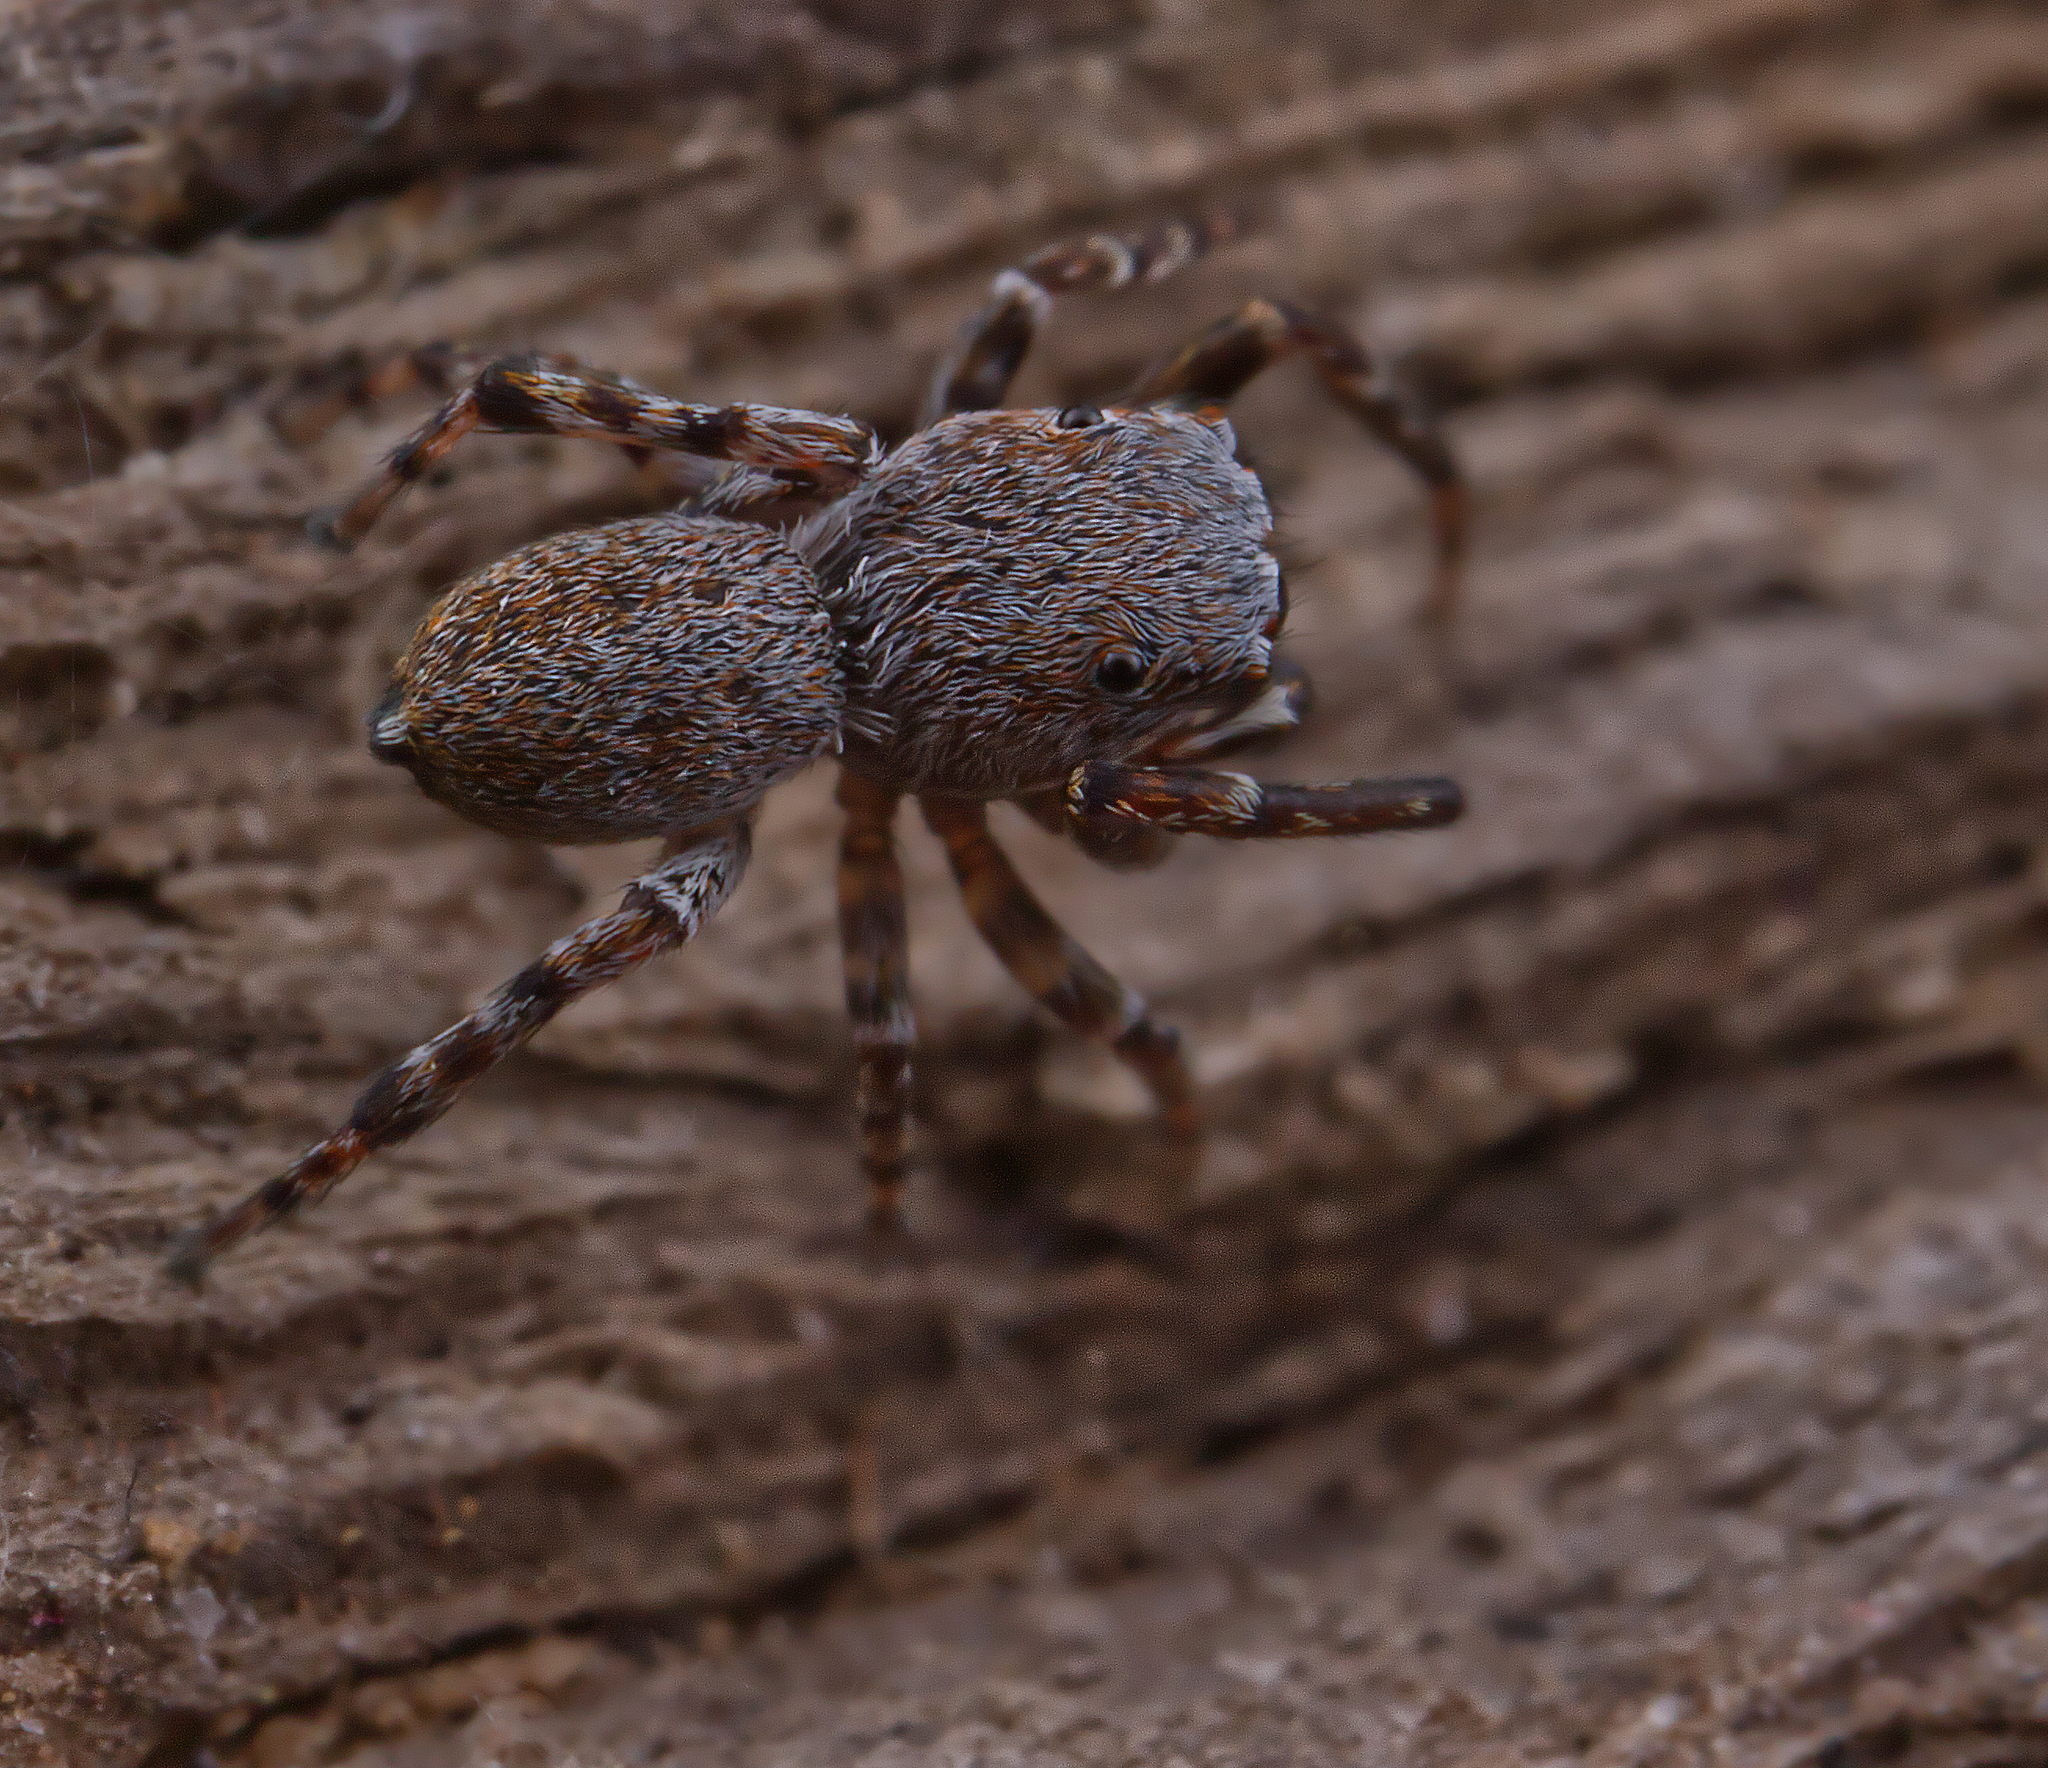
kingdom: Animalia
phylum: Arthropoda
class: Arachnida
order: Araneae
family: Salticidae
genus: Attinella
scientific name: Attinella concolor
